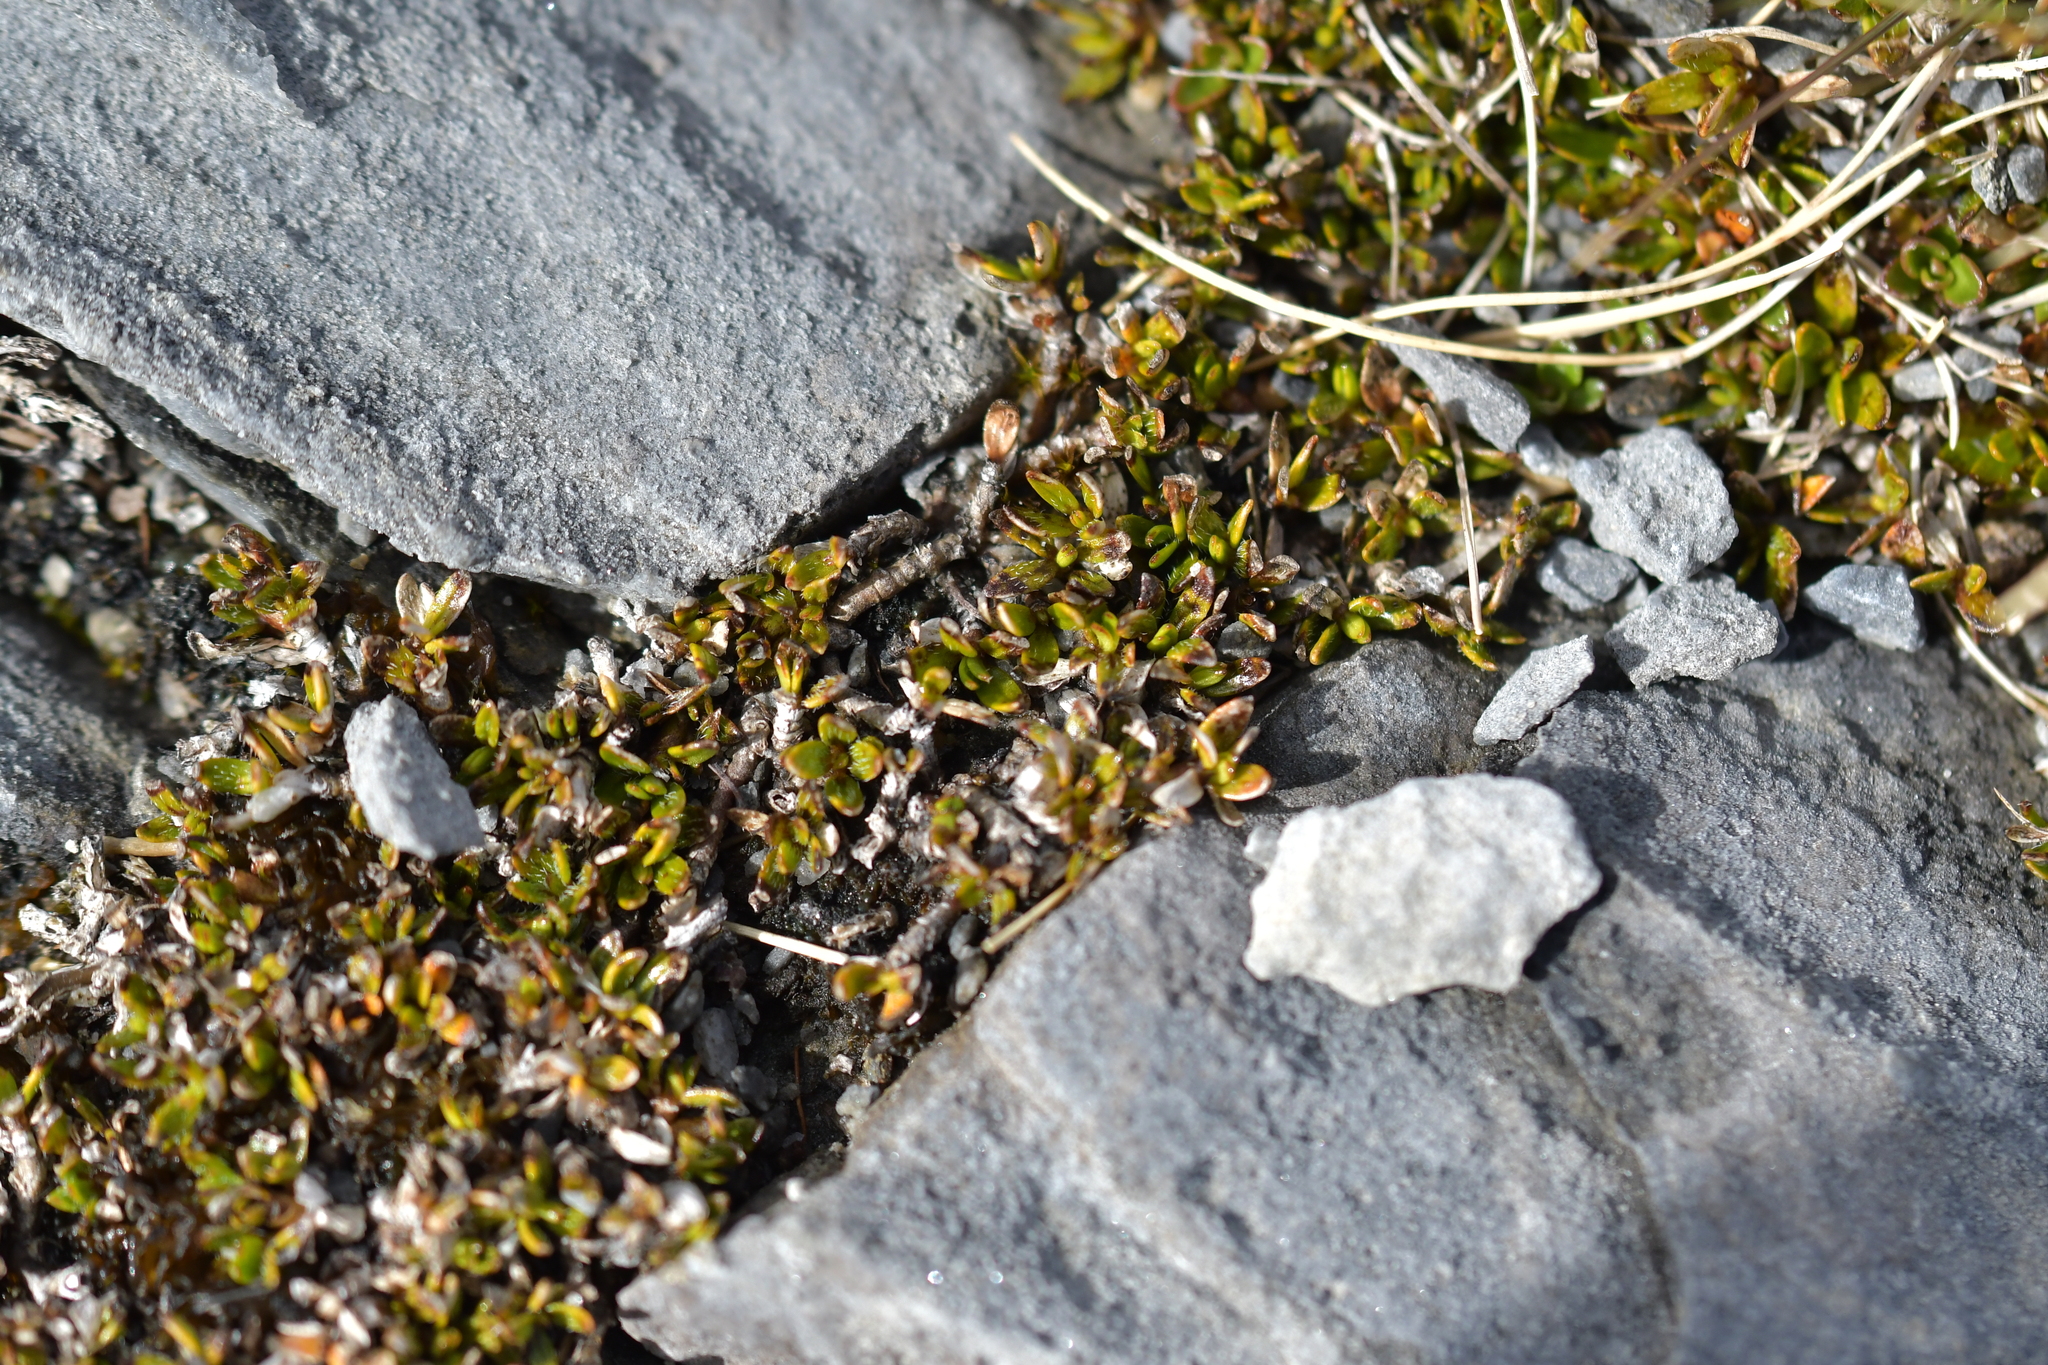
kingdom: Plantae
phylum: Tracheophyta
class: Magnoliopsida
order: Gentianales
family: Rubiaceae
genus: Coprosma
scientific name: Coprosma atropurpurea
